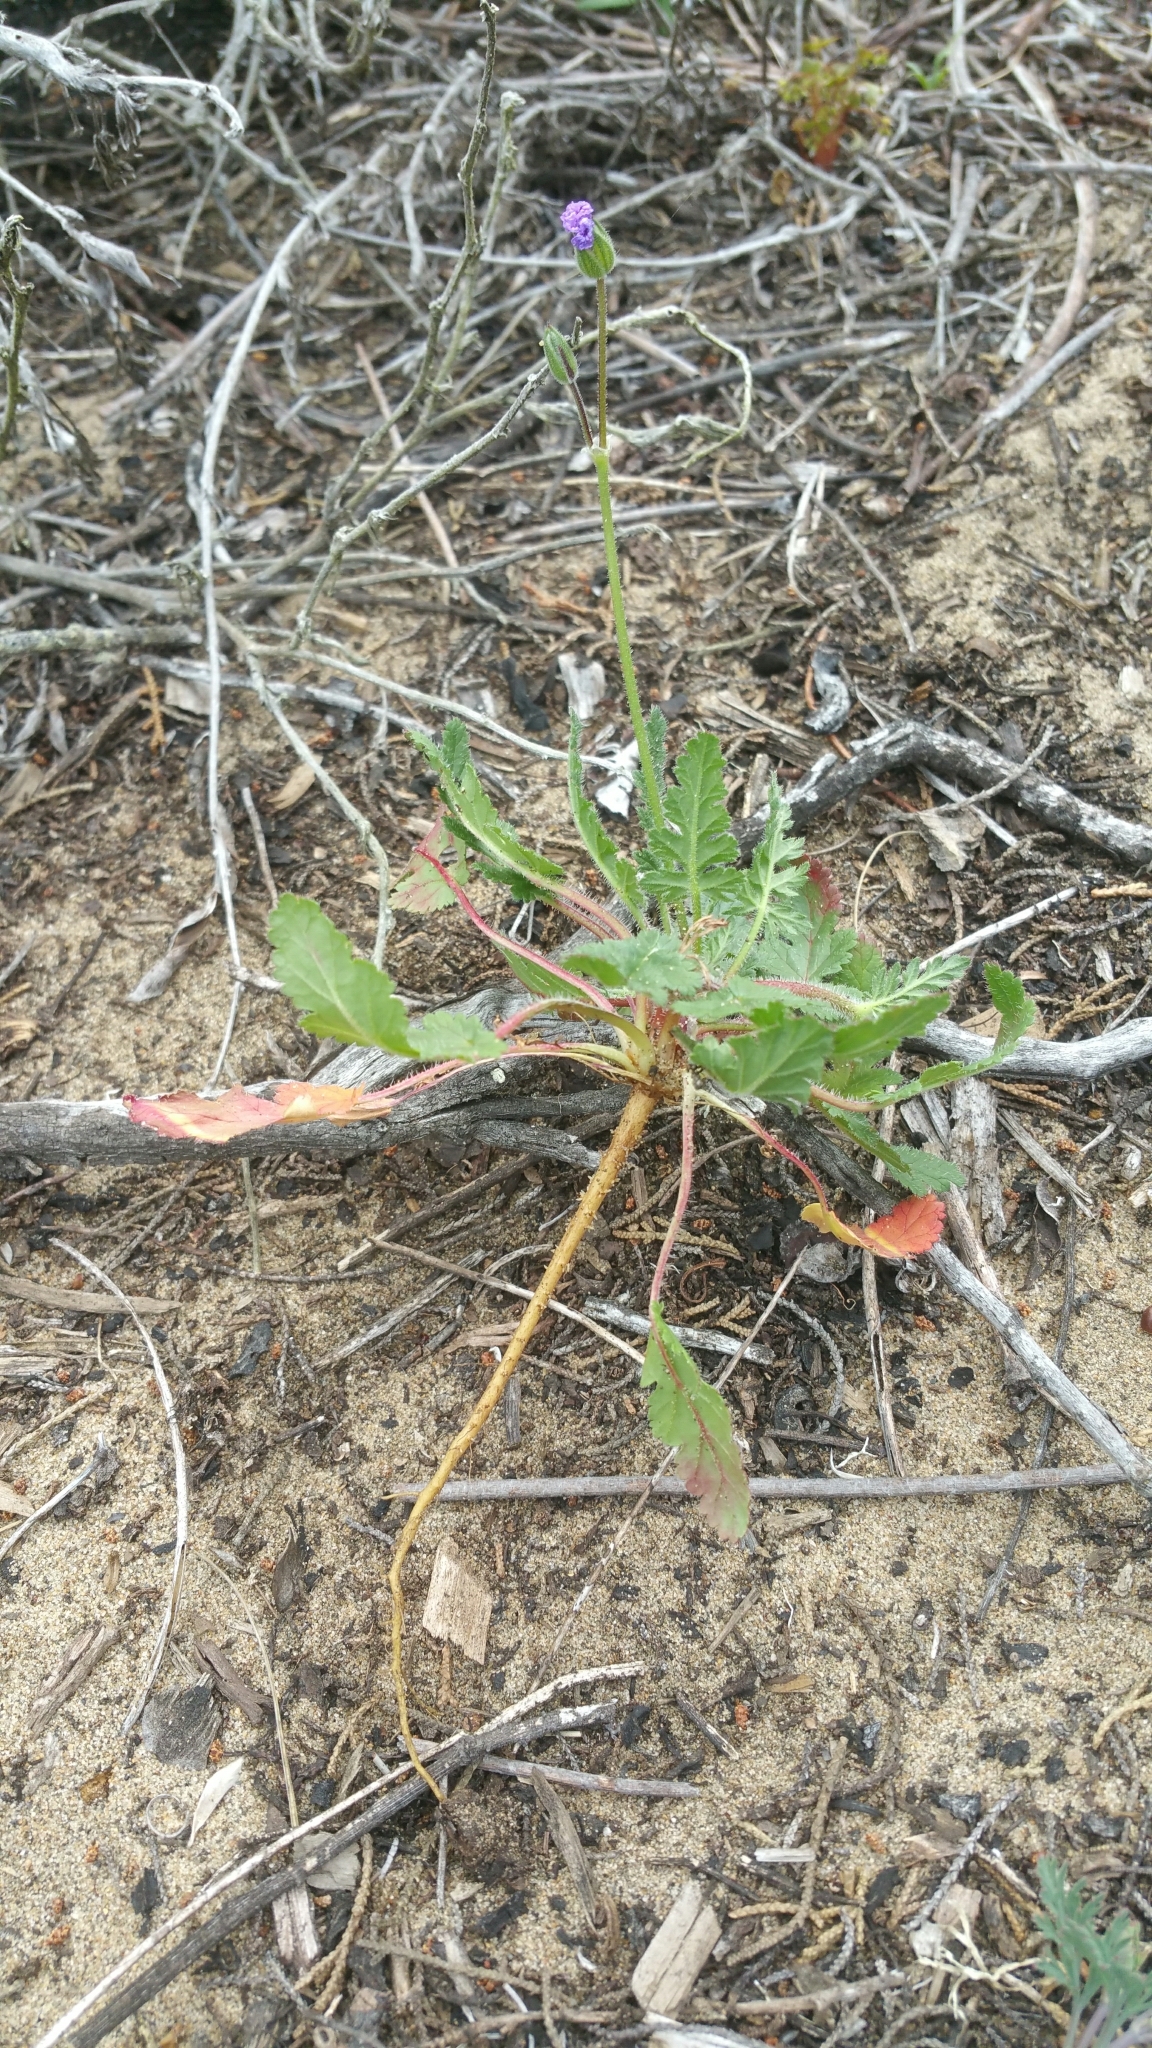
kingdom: Plantae
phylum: Tracheophyta
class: Magnoliopsida
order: Geraniales
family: Geraniaceae
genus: Erodium
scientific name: Erodium botrys
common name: Mediterranean stork's-bill
